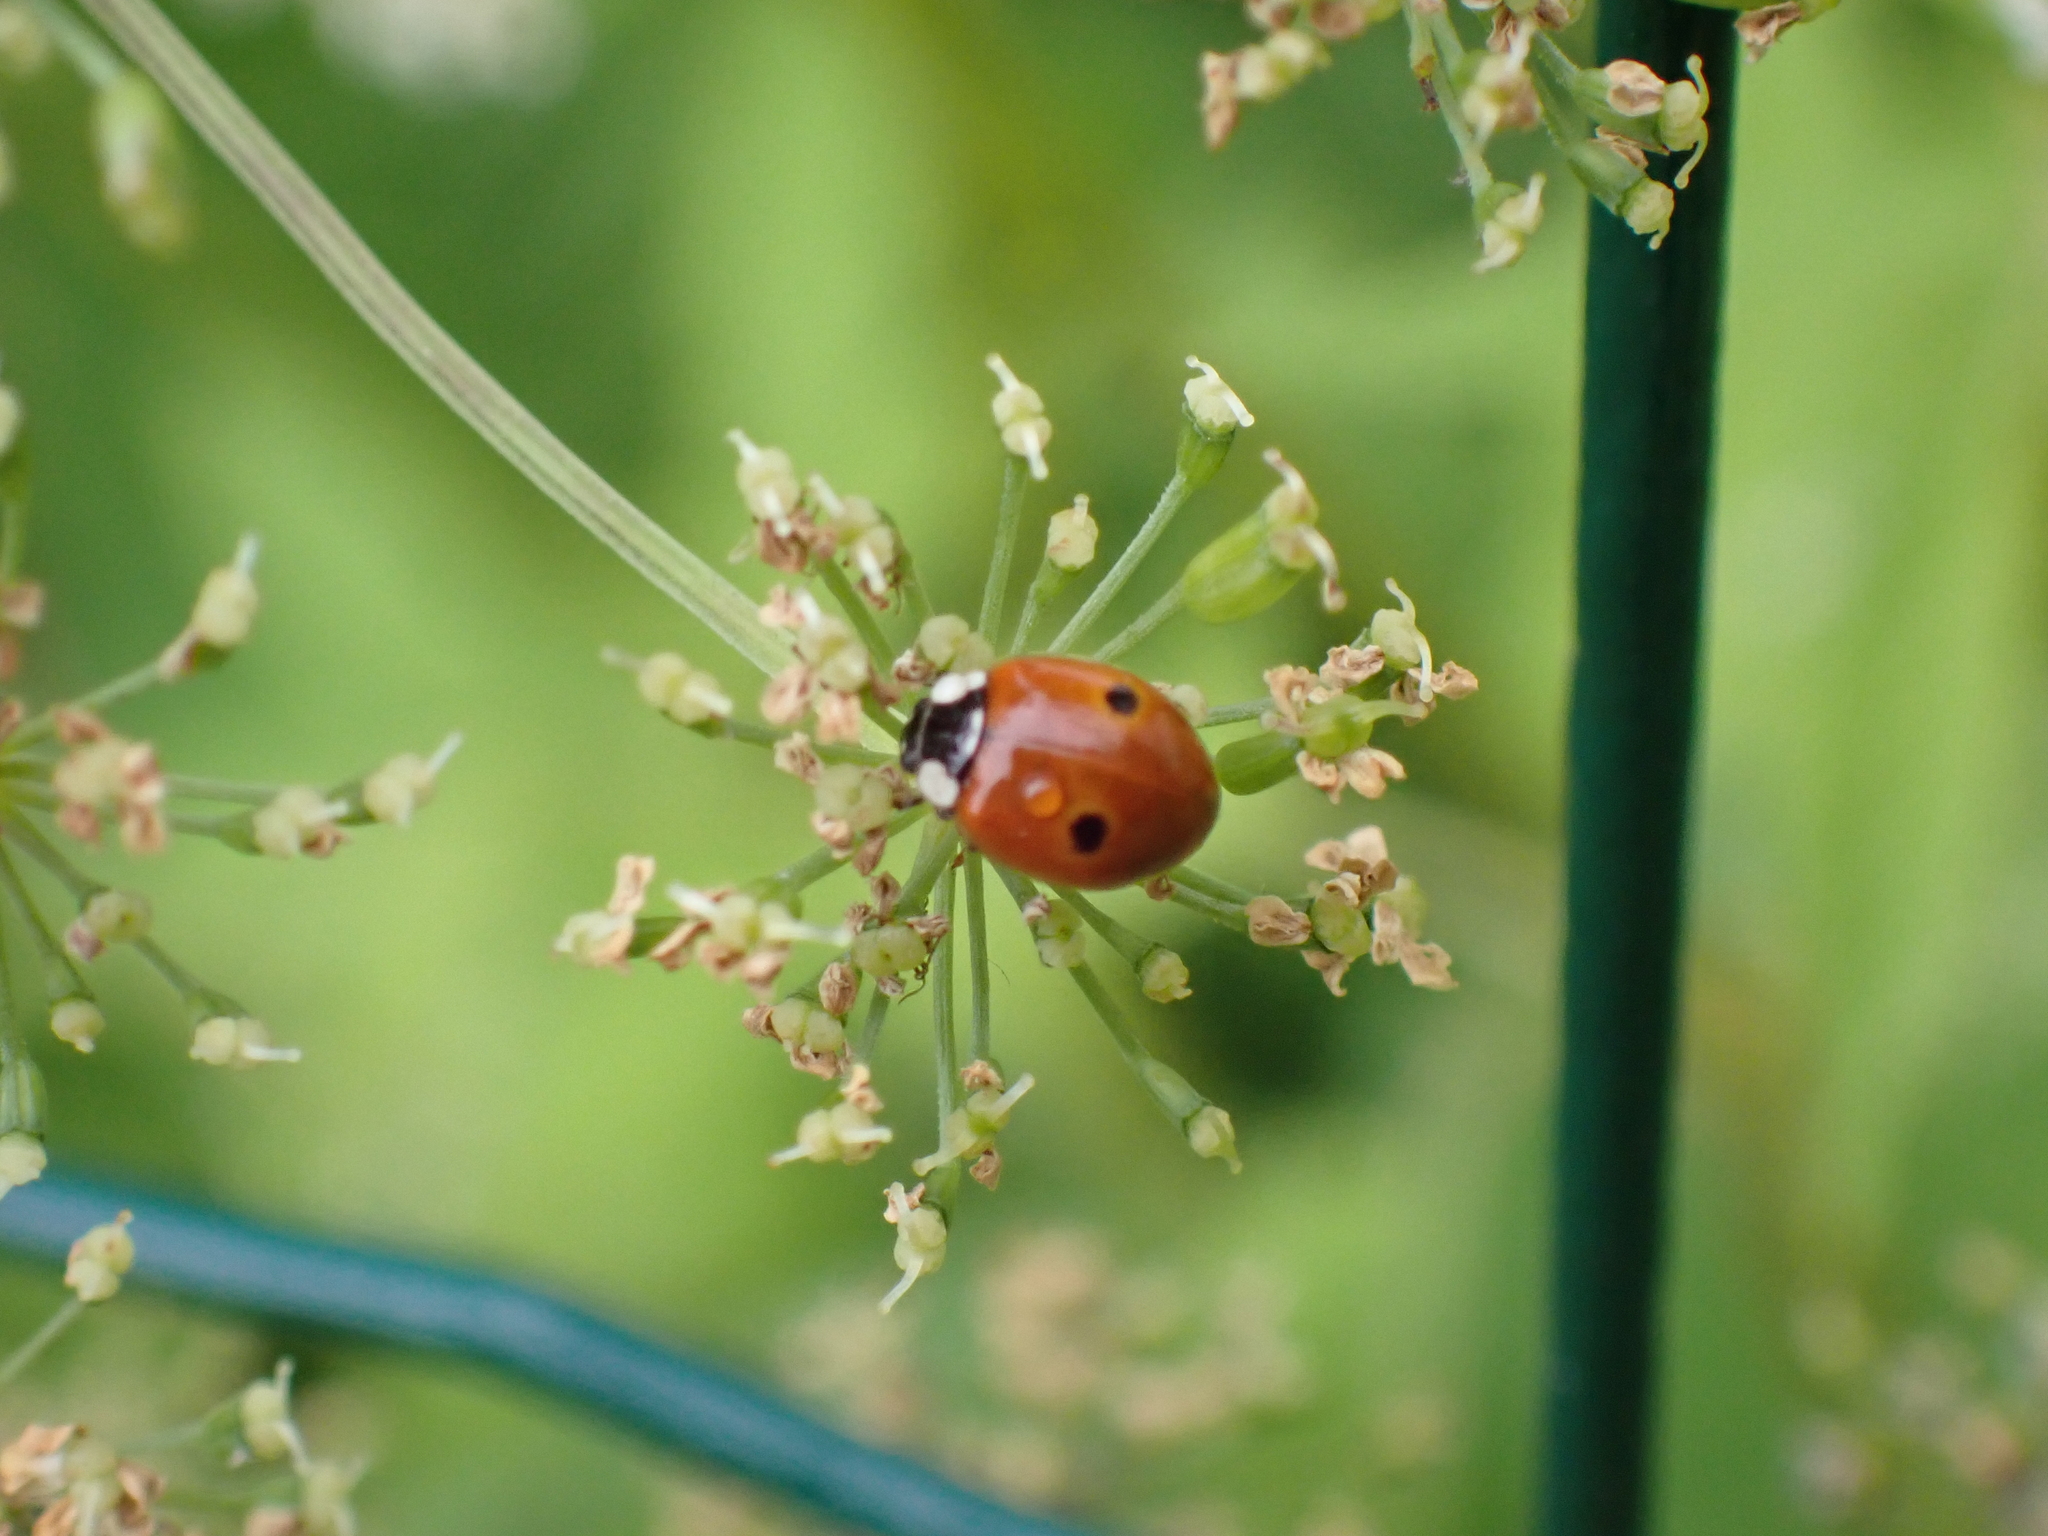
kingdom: Animalia
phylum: Arthropoda
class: Insecta
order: Coleoptera
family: Coccinellidae
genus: Adalia
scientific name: Adalia bipunctata
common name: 2-spot ladybird
